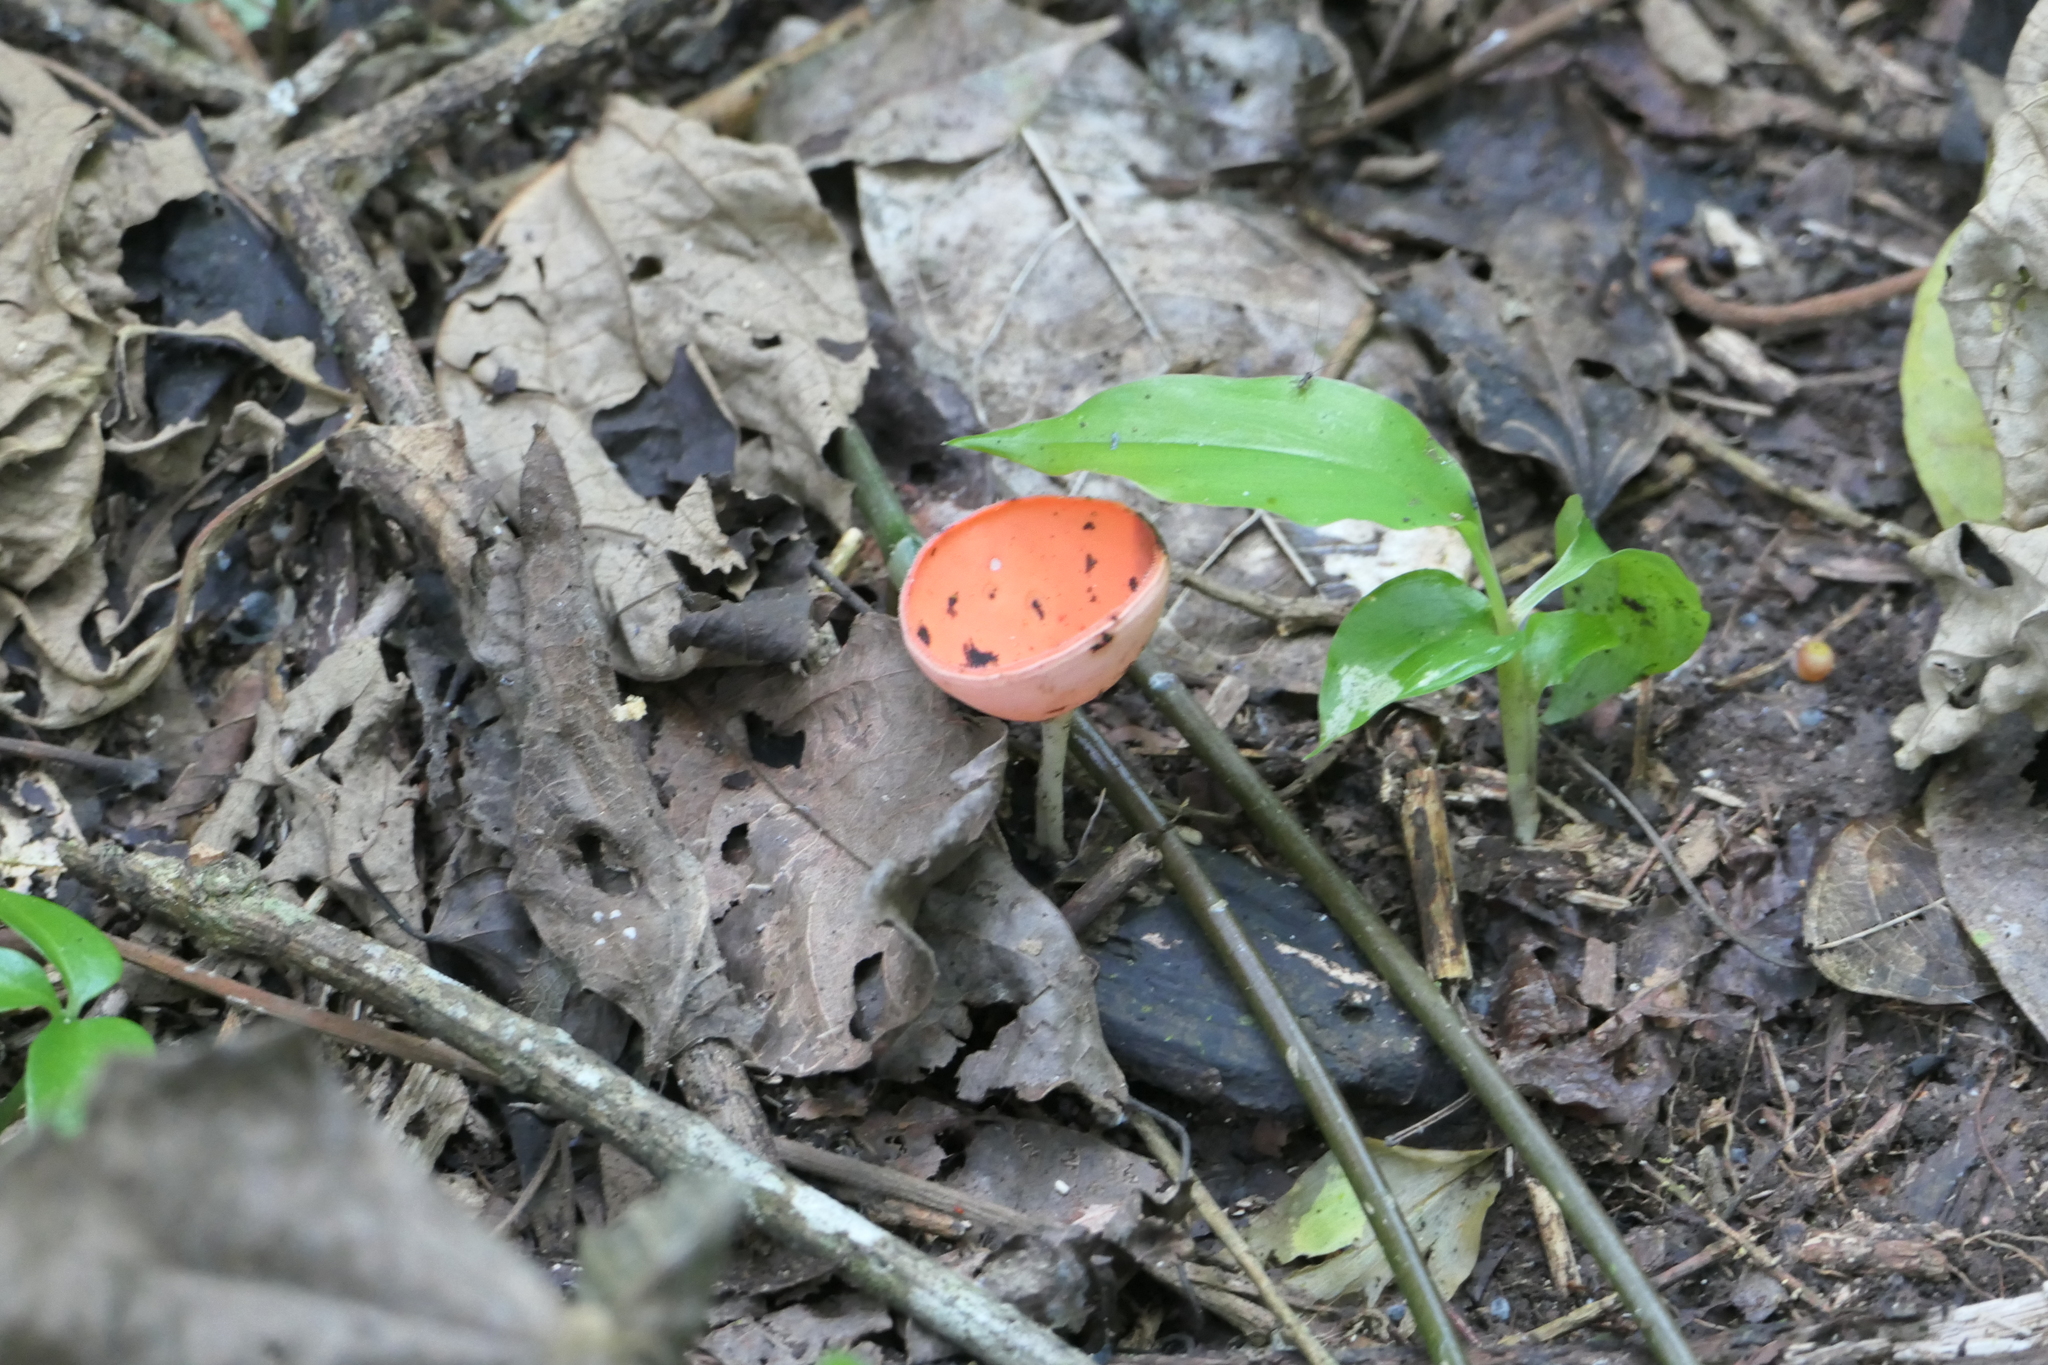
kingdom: Fungi
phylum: Ascomycota
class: Pezizomycetes
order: Pezizales
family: Sarcoscyphaceae
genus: Cookeina
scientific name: Cookeina speciosa
